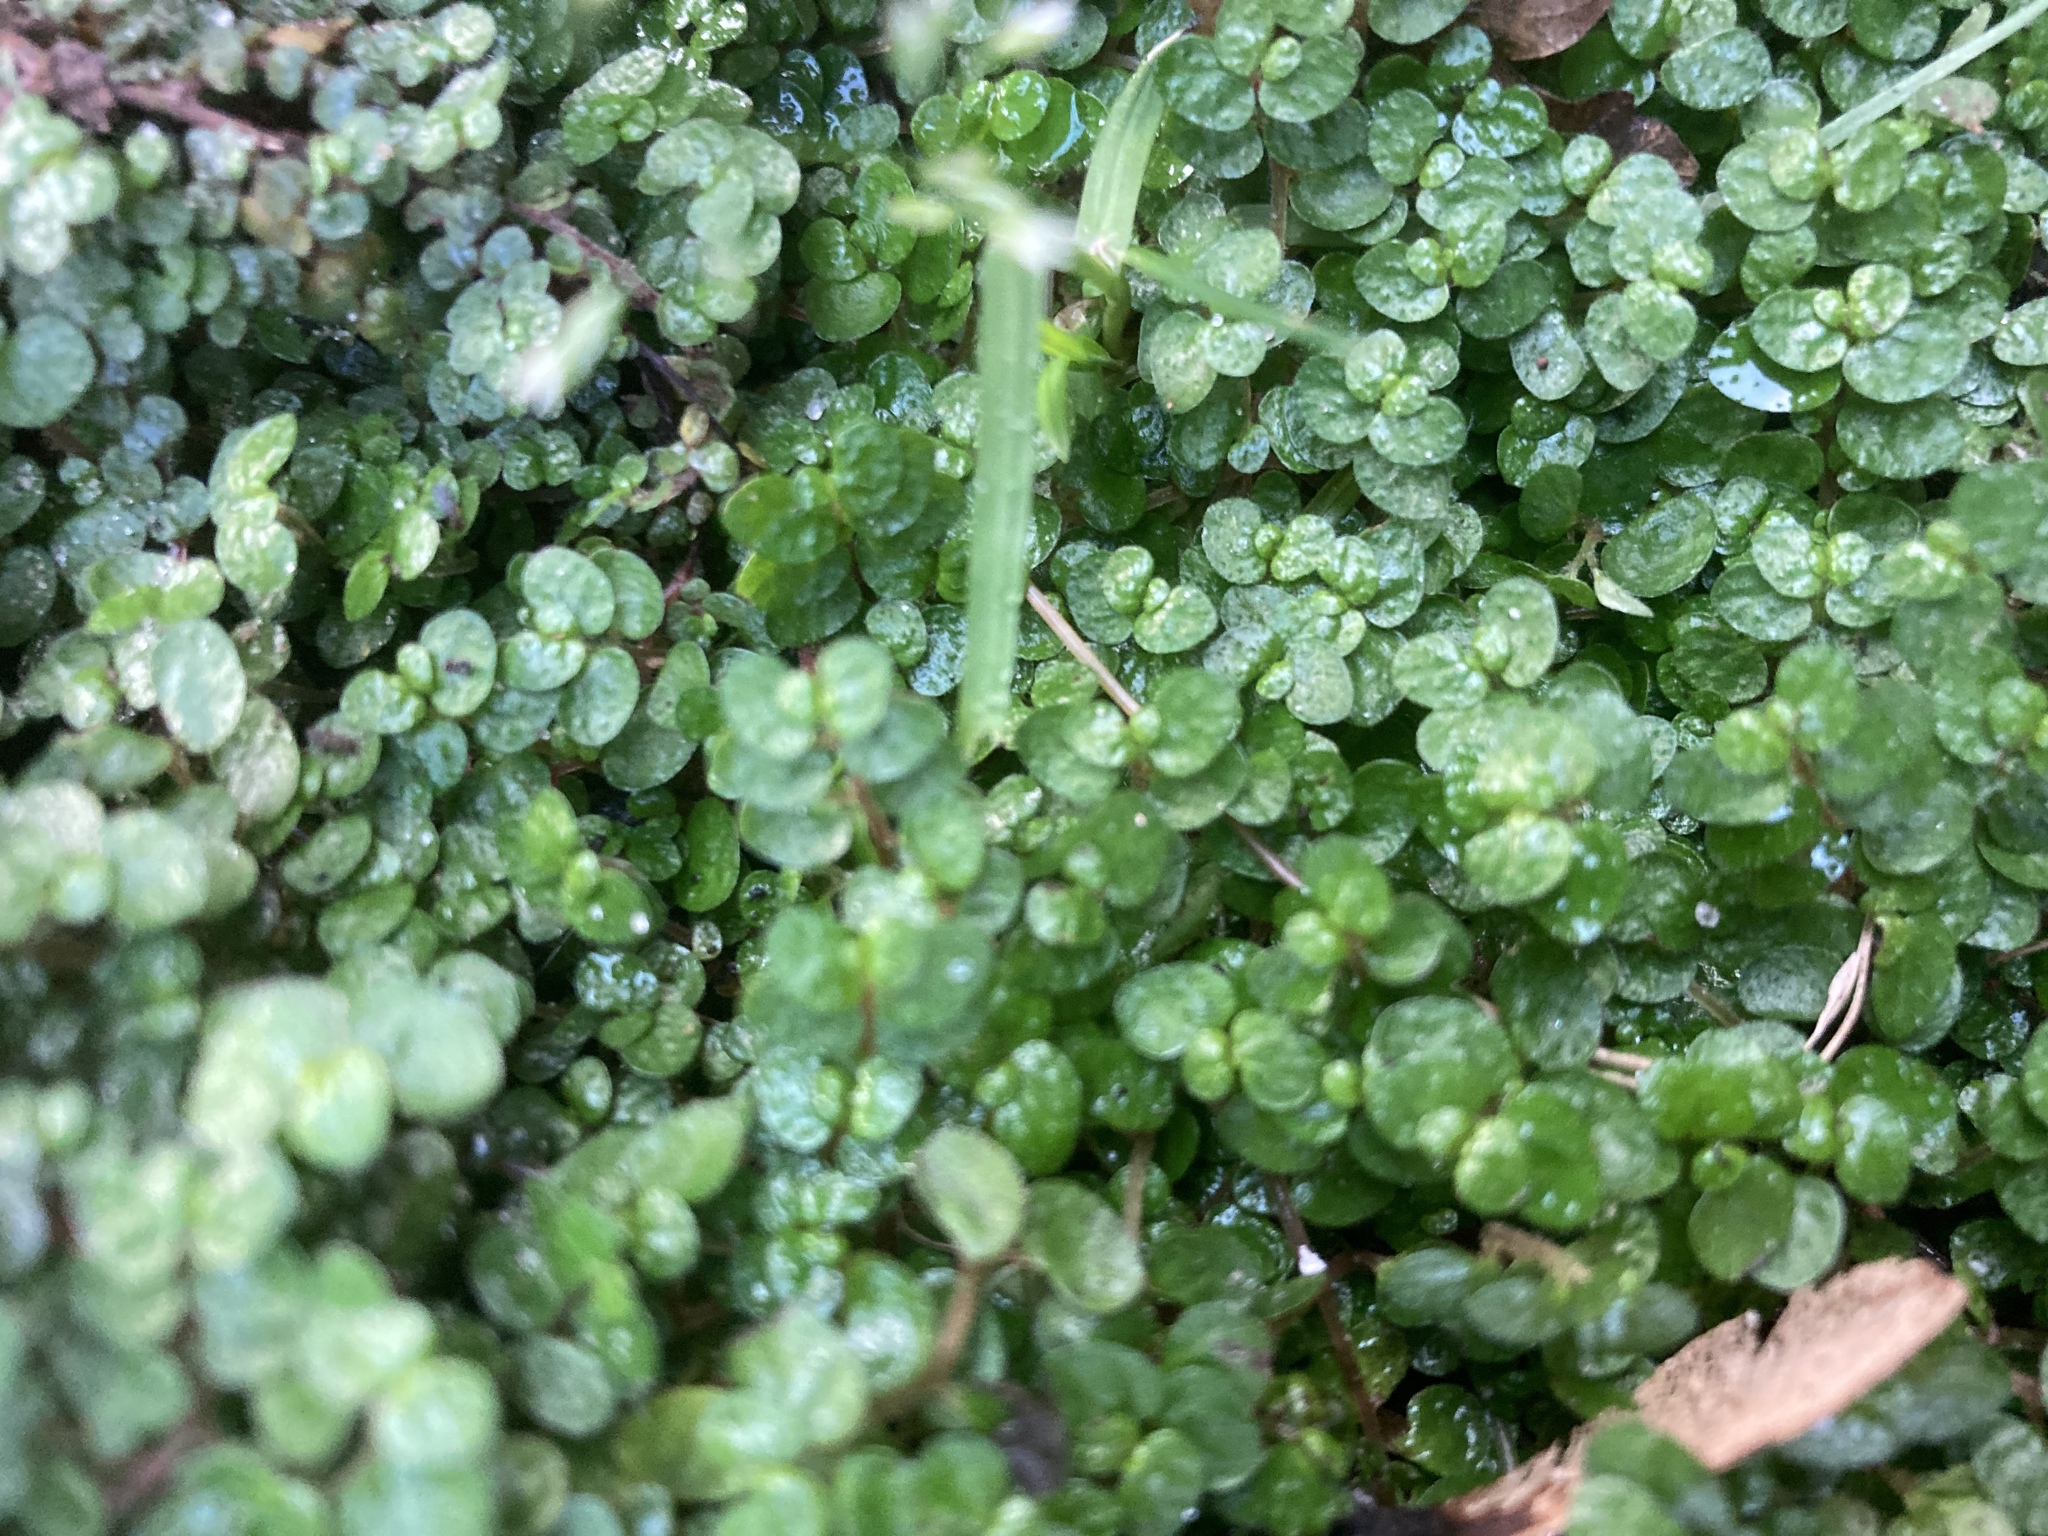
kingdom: Plantae
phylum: Tracheophyta
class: Magnoliopsida
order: Rosales
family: Urticaceae
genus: Soleirolia
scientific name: Soleirolia soleirolii
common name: Mind-your-own-business
